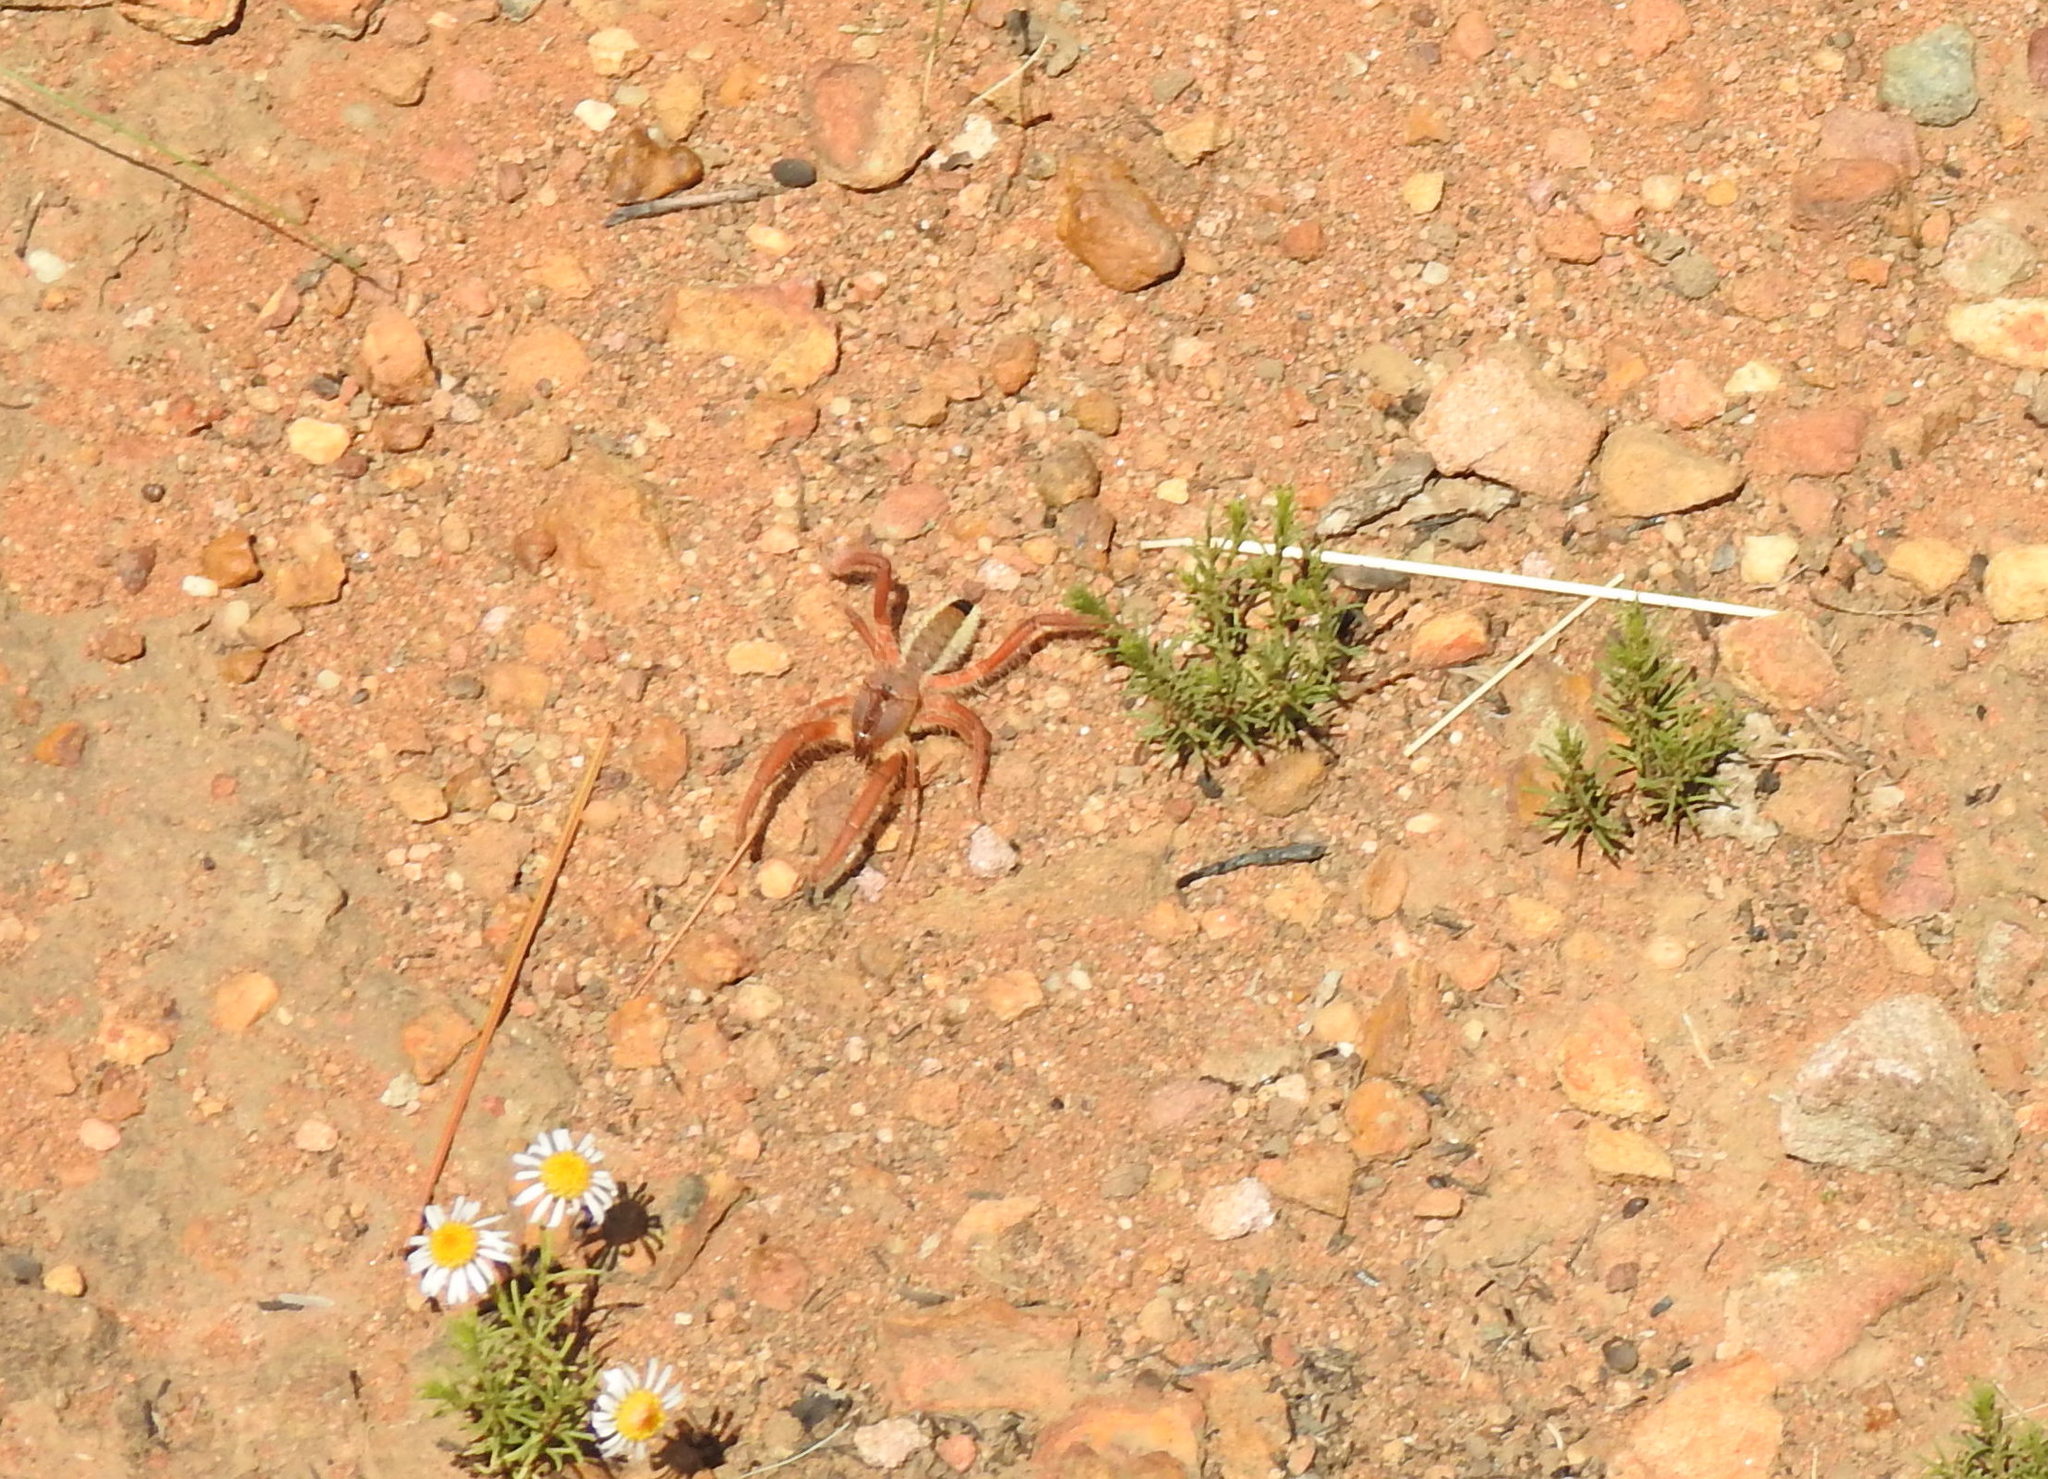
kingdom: Animalia
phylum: Arthropoda
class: Arachnida
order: Solifugae
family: Solpugidae
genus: Solpugema
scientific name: Solpugema hostilis
